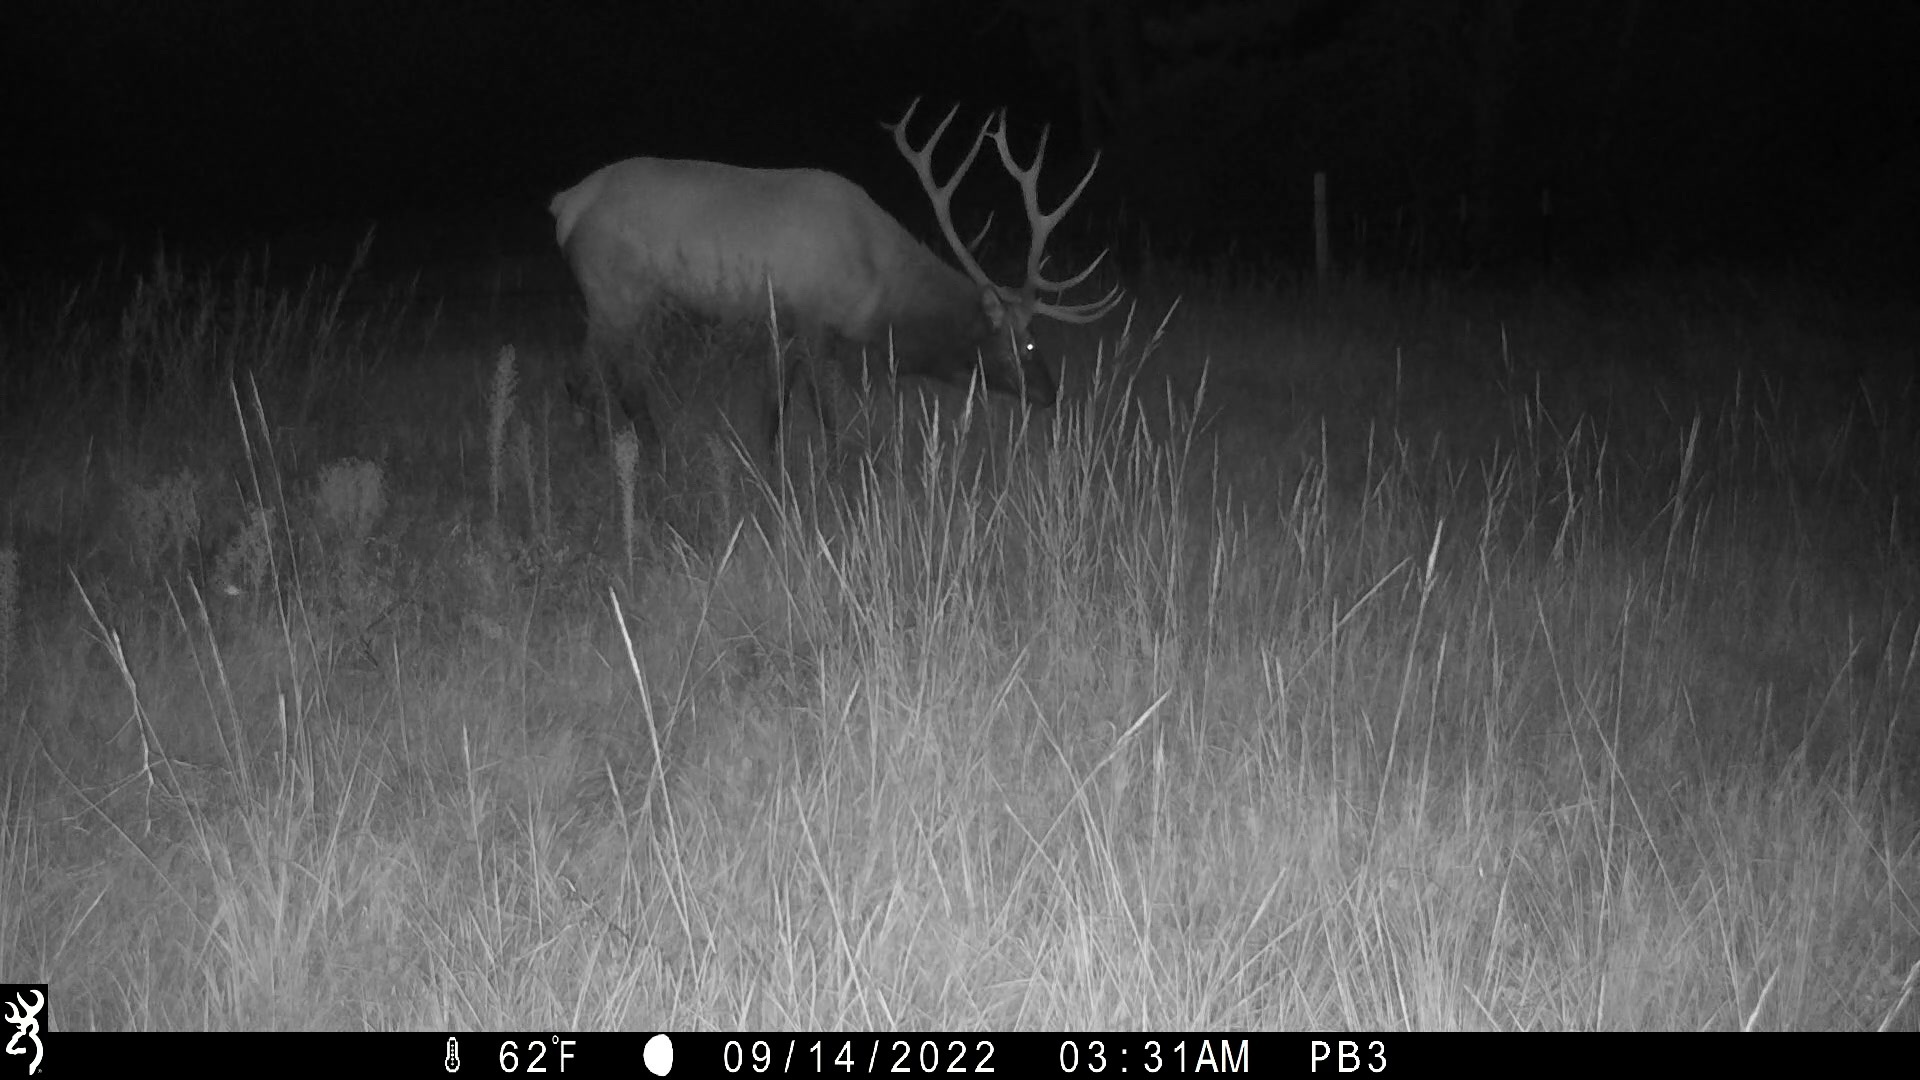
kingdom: Animalia
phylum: Chordata
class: Mammalia
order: Artiodactyla
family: Cervidae
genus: Cervus
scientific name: Cervus elaphus
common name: Red deer
